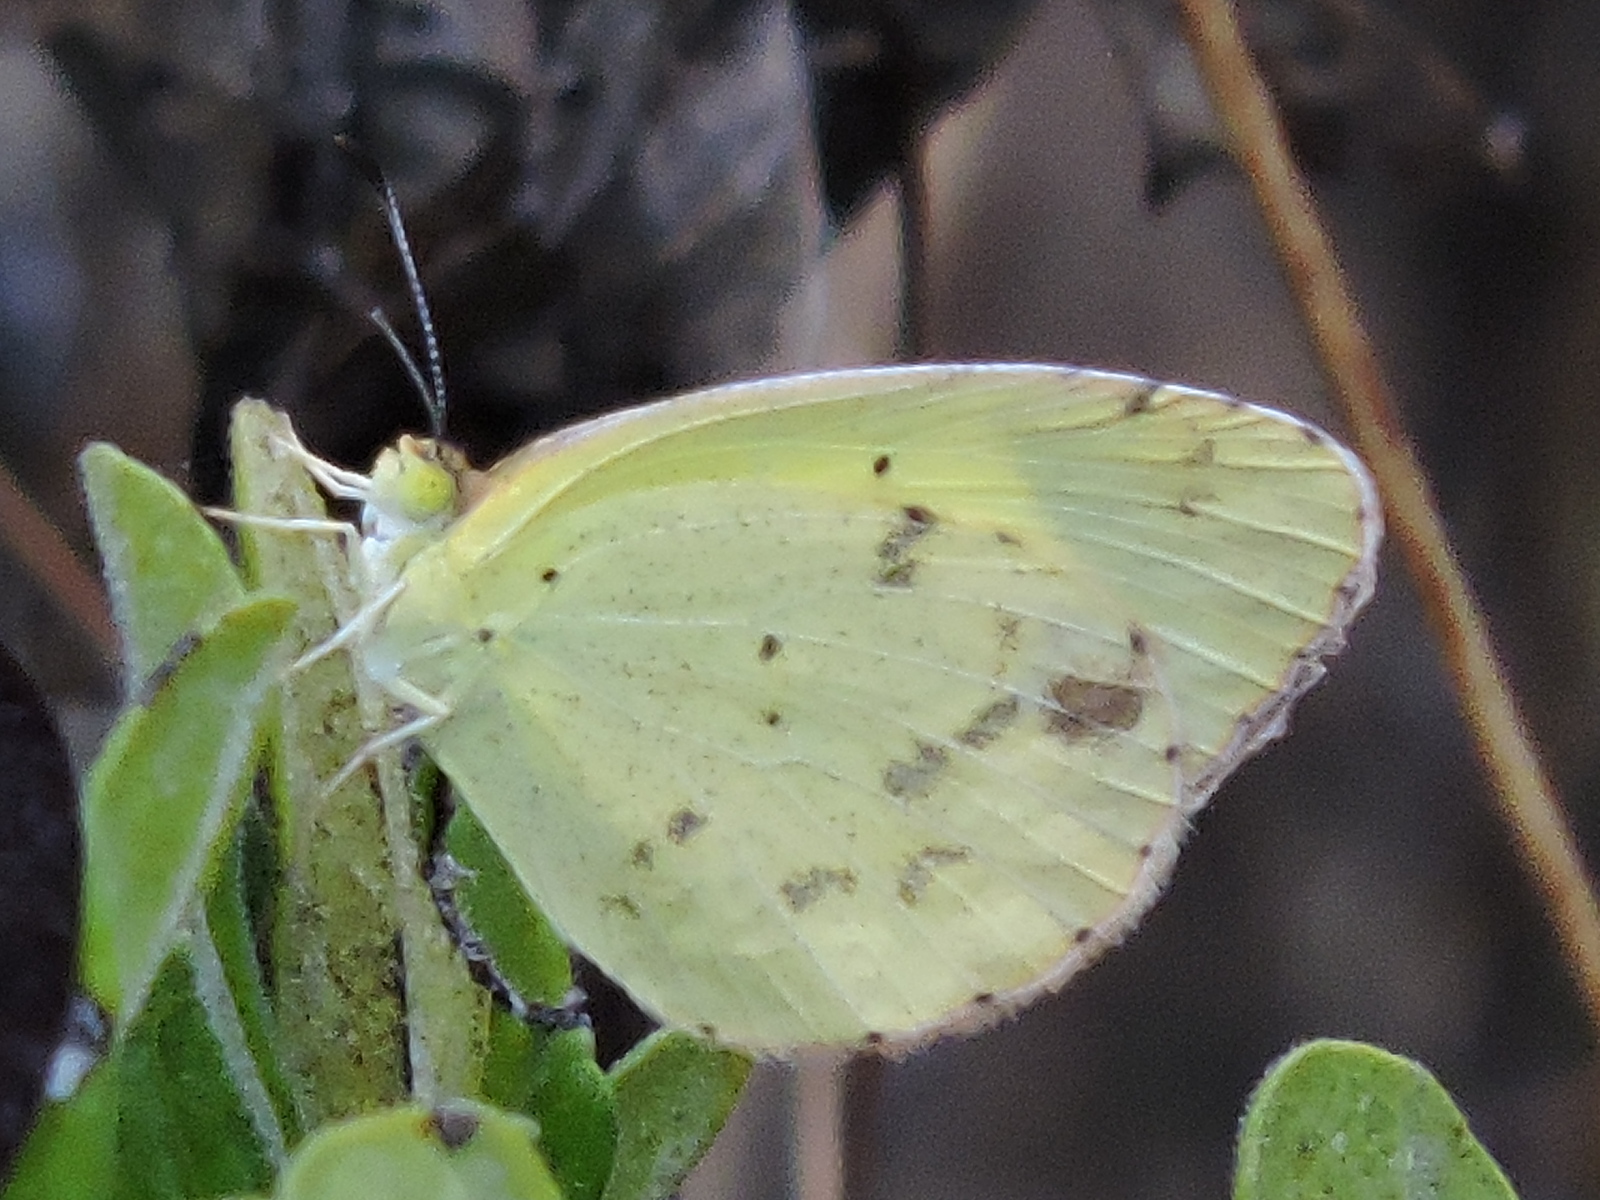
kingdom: Animalia
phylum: Arthropoda
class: Insecta
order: Lepidoptera
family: Pieridae
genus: Pyrisitia
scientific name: Pyrisitia lisa
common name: Little yellow
